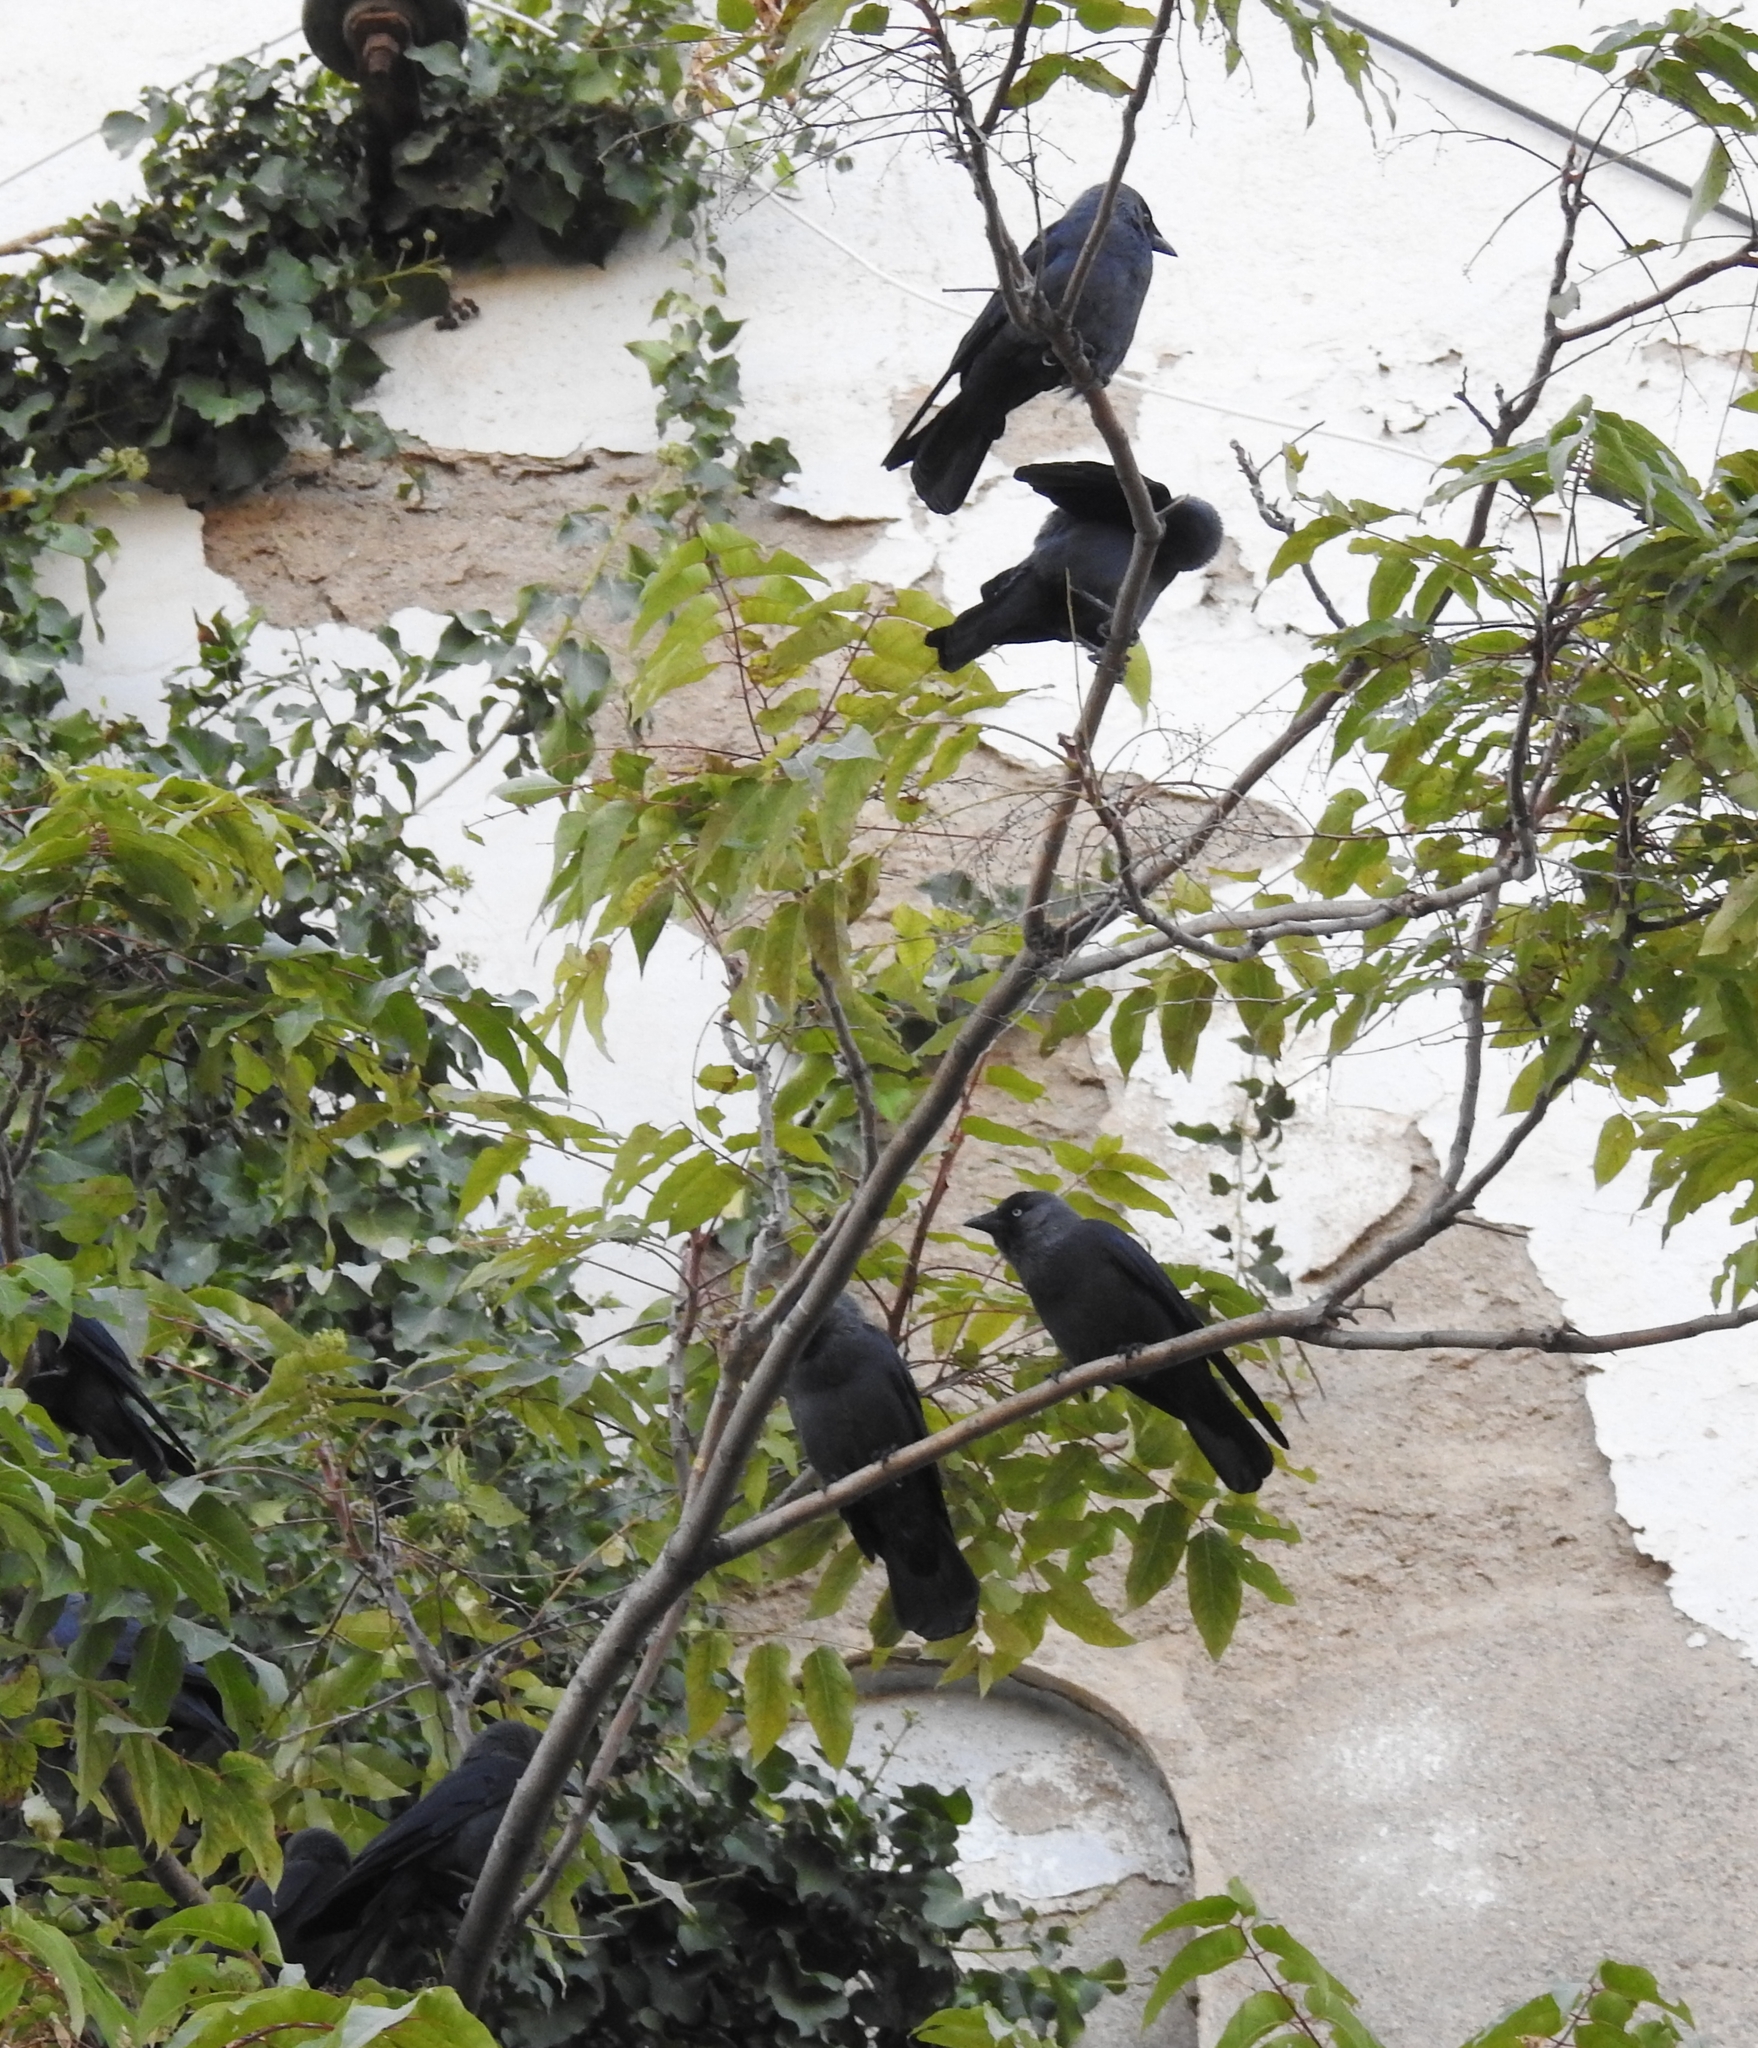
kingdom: Animalia
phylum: Chordata
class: Aves
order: Passeriformes
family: Corvidae
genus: Coloeus
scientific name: Coloeus monedula
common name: Western jackdaw
